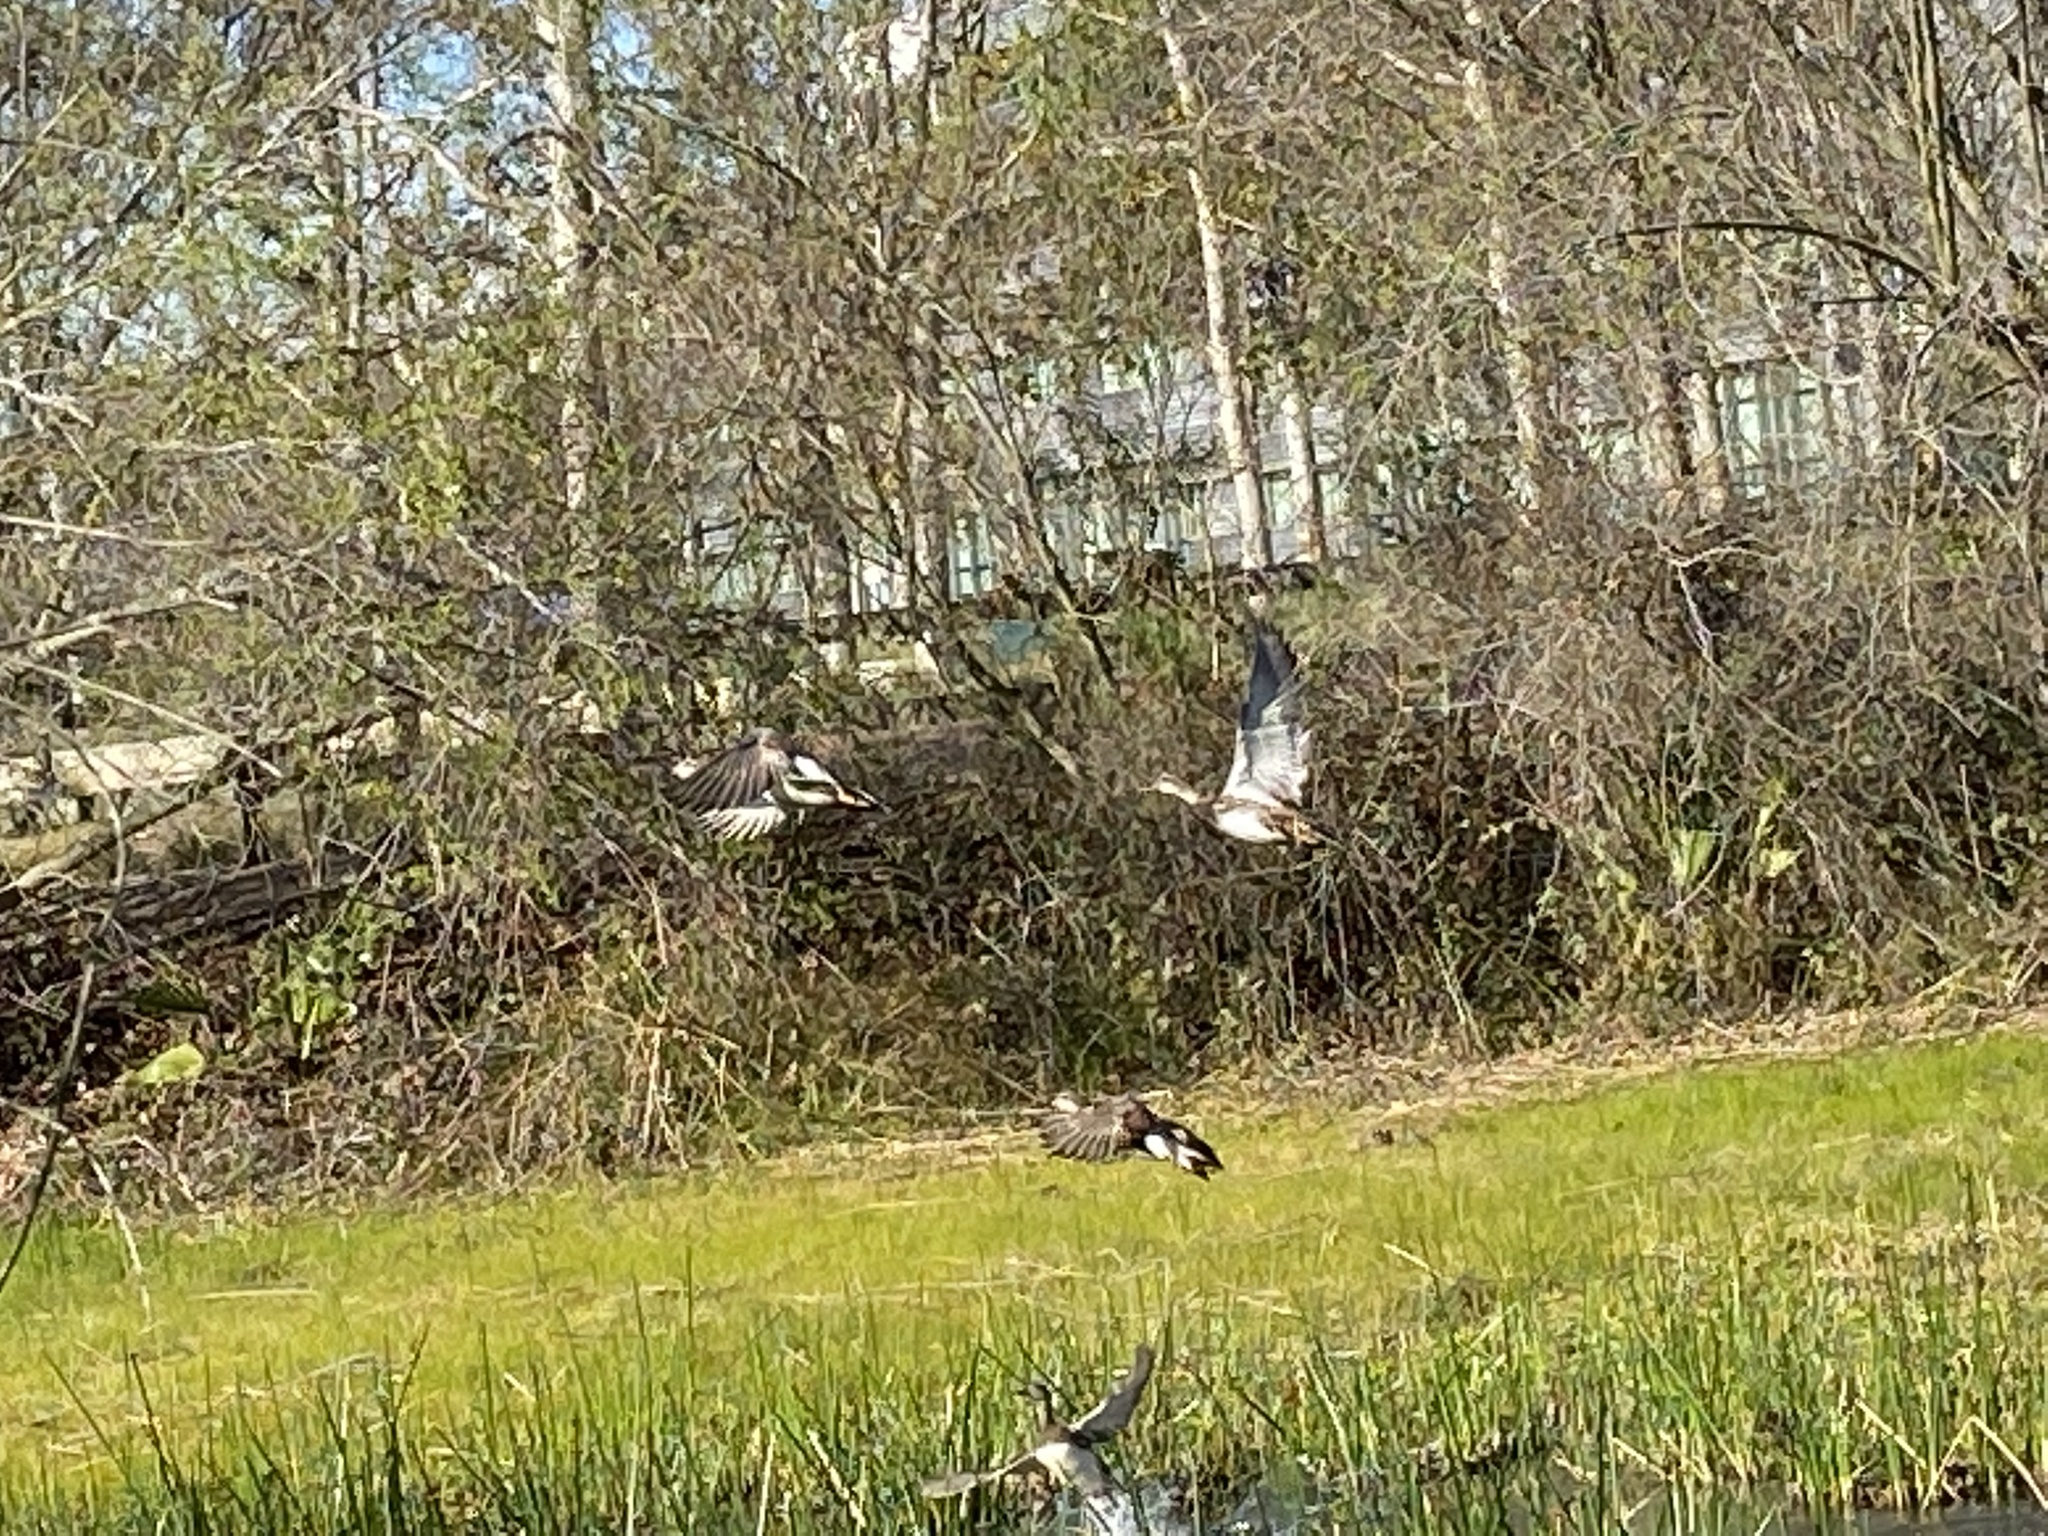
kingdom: Animalia
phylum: Chordata
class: Aves
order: Anseriformes
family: Anatidae
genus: Mareca
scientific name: Mareca strepera
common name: Gadwall
